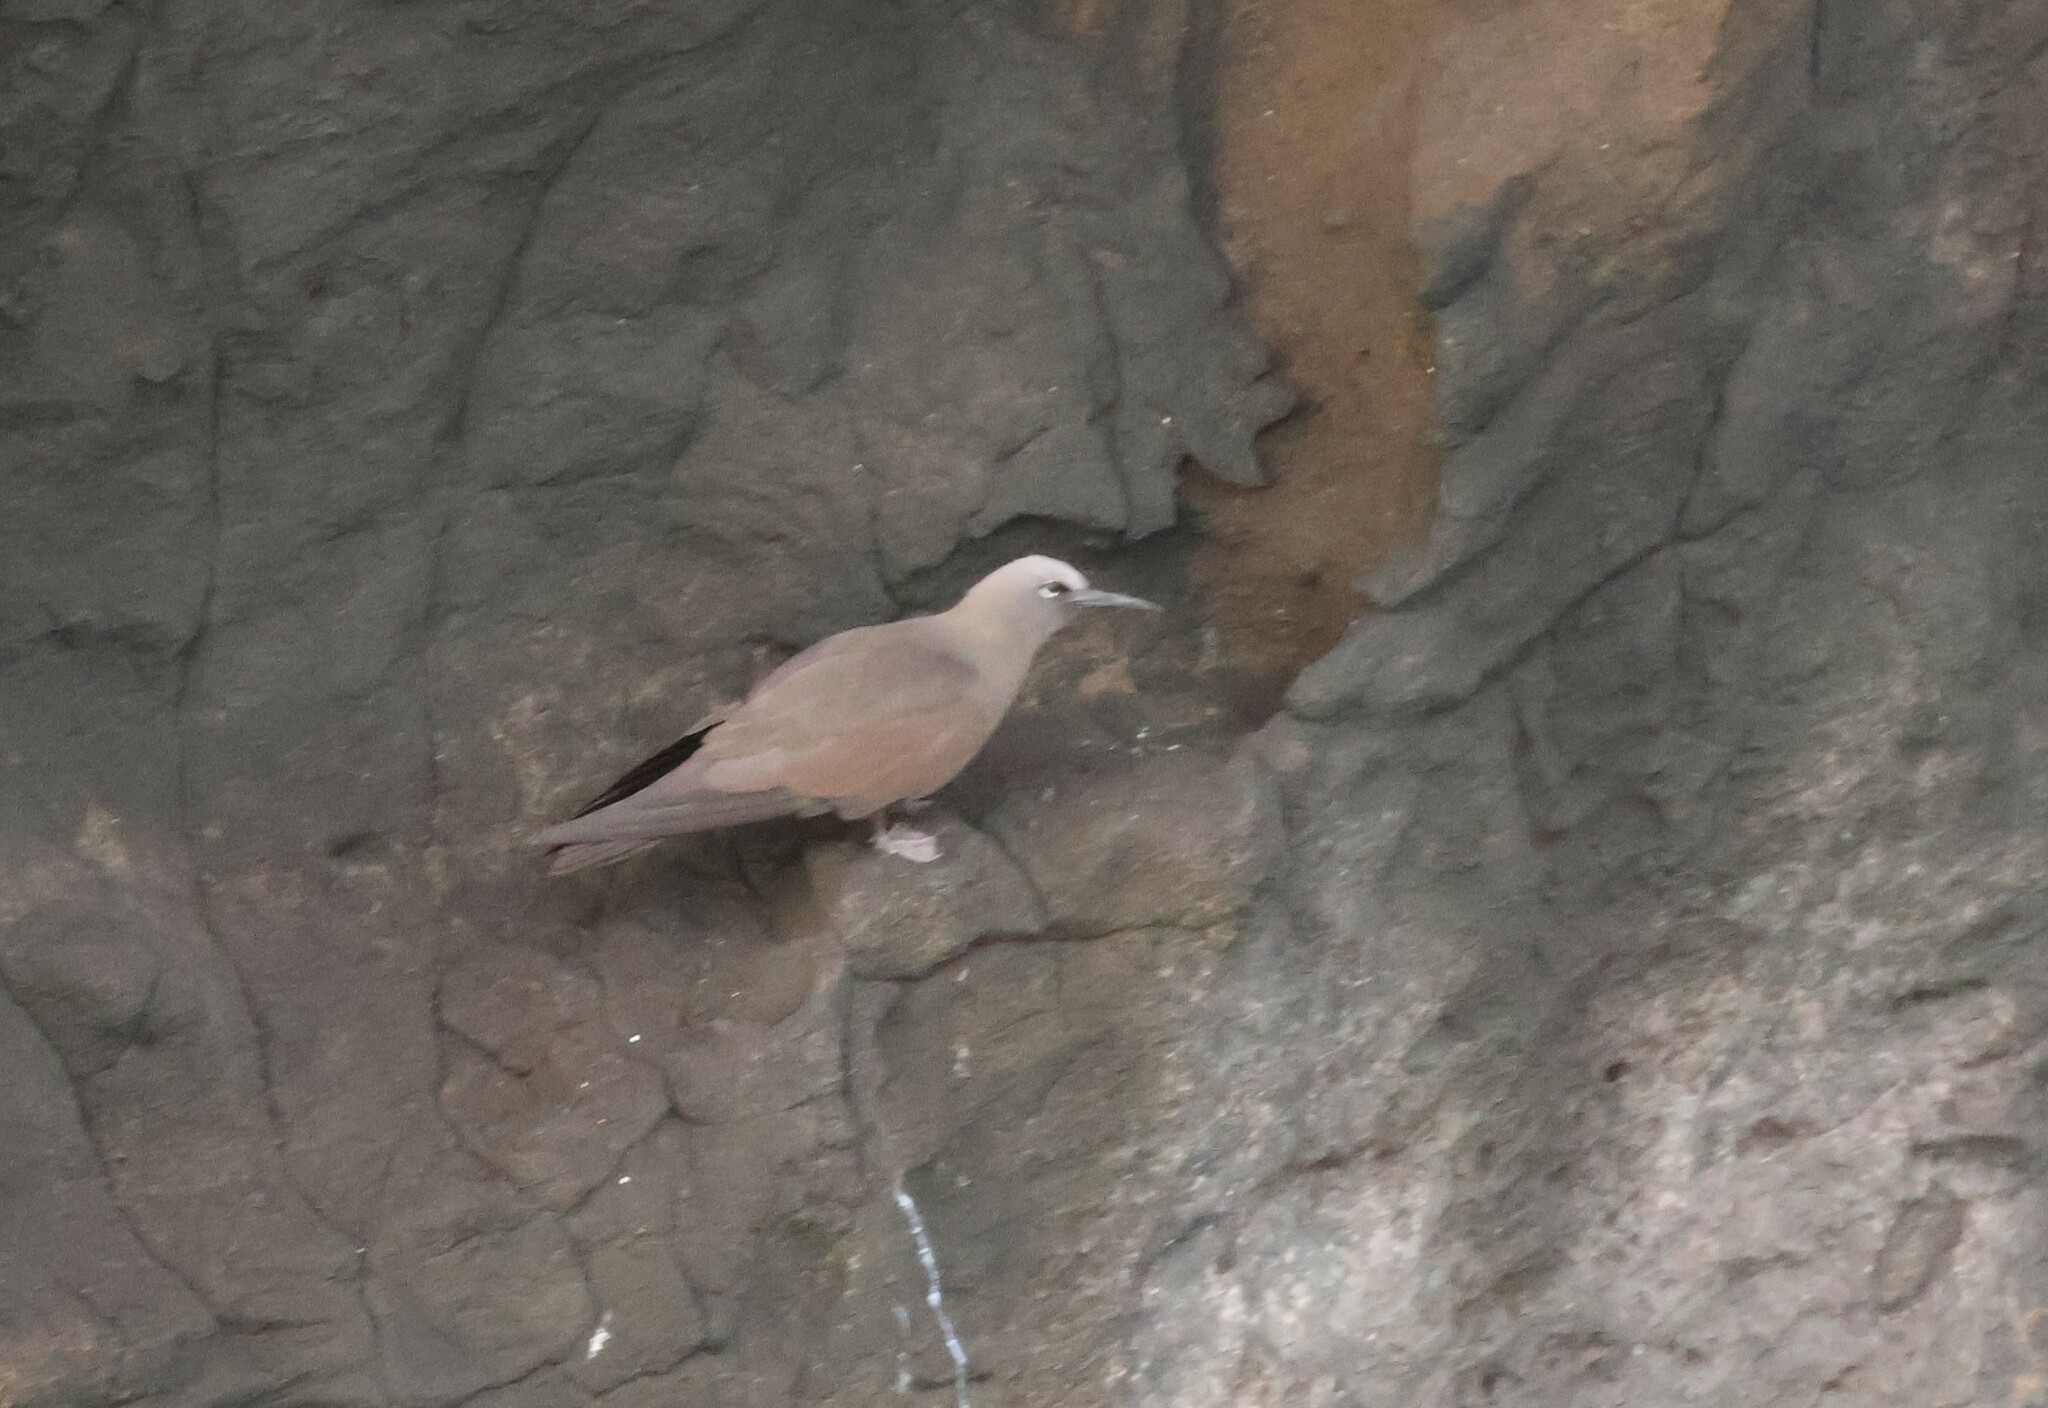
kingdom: Animalia
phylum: Chordata
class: Aves
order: Charadriiformes
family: Laridae
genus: Anous
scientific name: Anous stolidus
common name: Brown noddy
